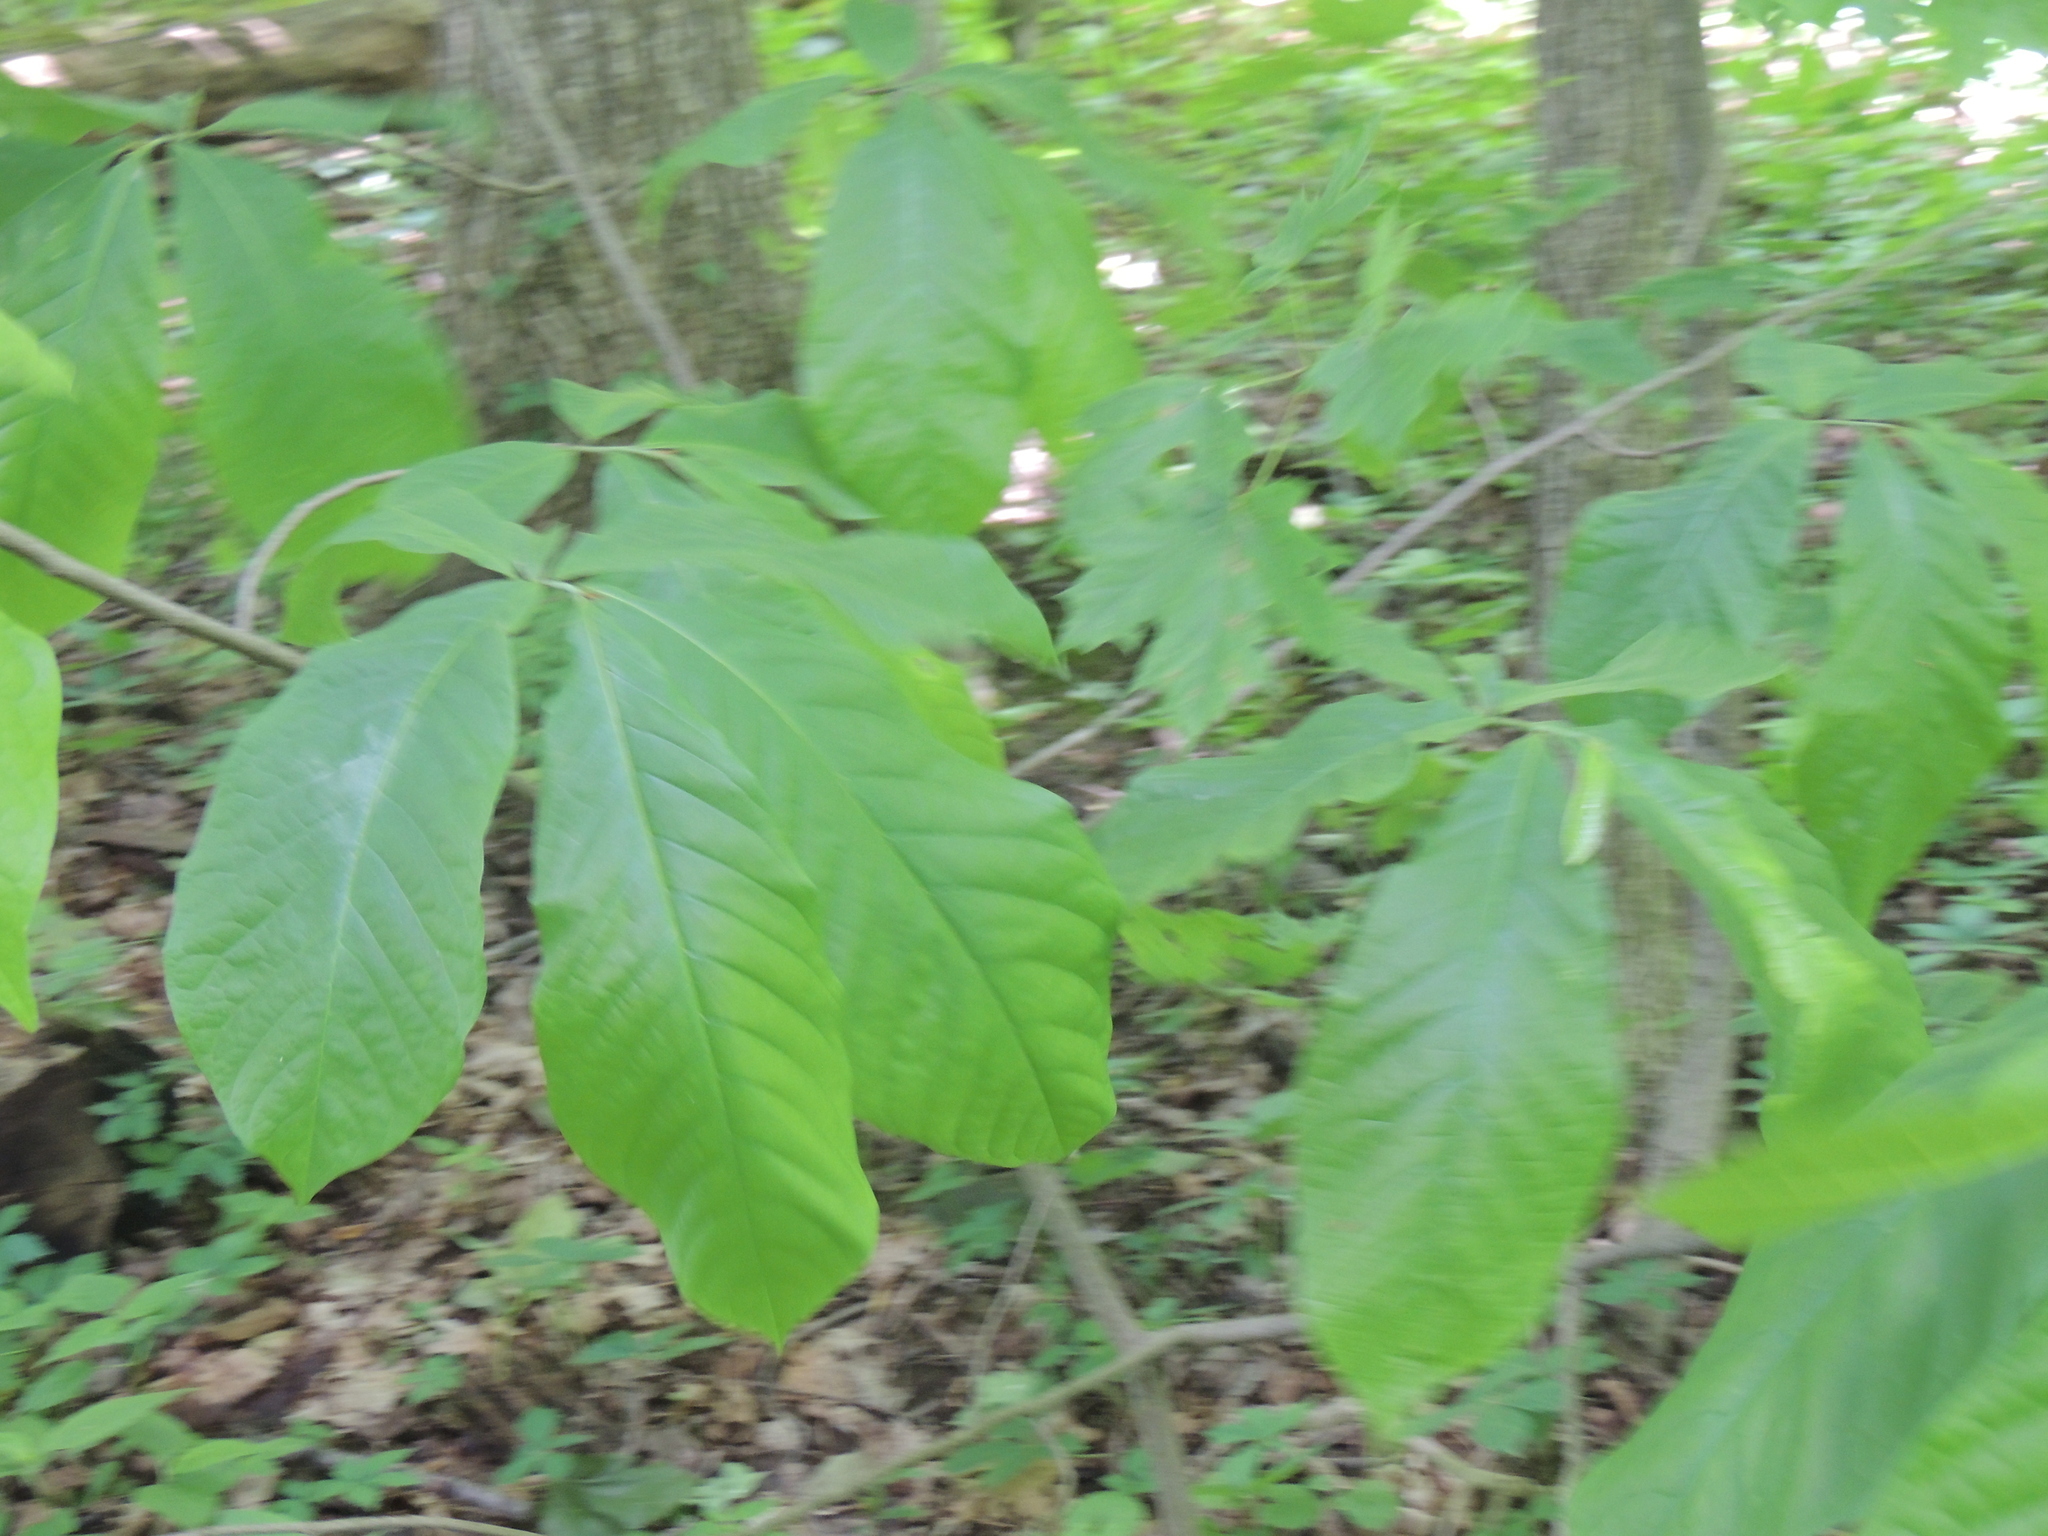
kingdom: Plantae
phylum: Tracheophyta
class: Magnoliopsida
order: Magnoliales
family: Annonaceae
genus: Asimina
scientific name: Asimina triloba
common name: Dog-banana
